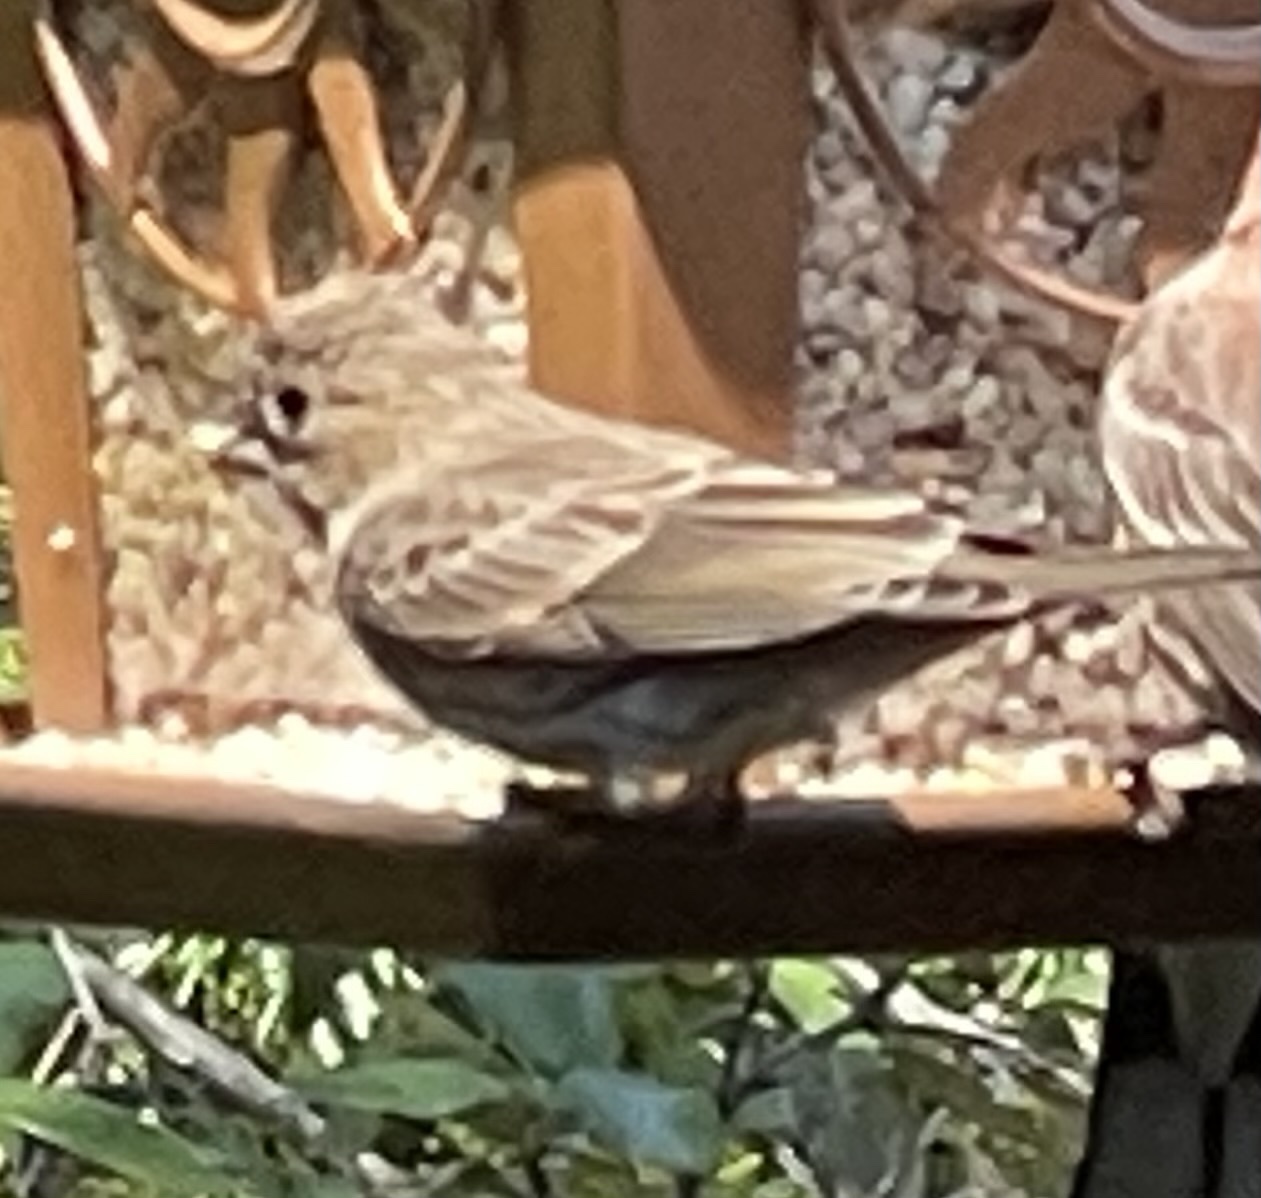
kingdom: Animalia
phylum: Chordata
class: Aves
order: Passeriformes
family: Fringillidae
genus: Haemorhous
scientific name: Haemorhous mexicanus
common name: House finch
